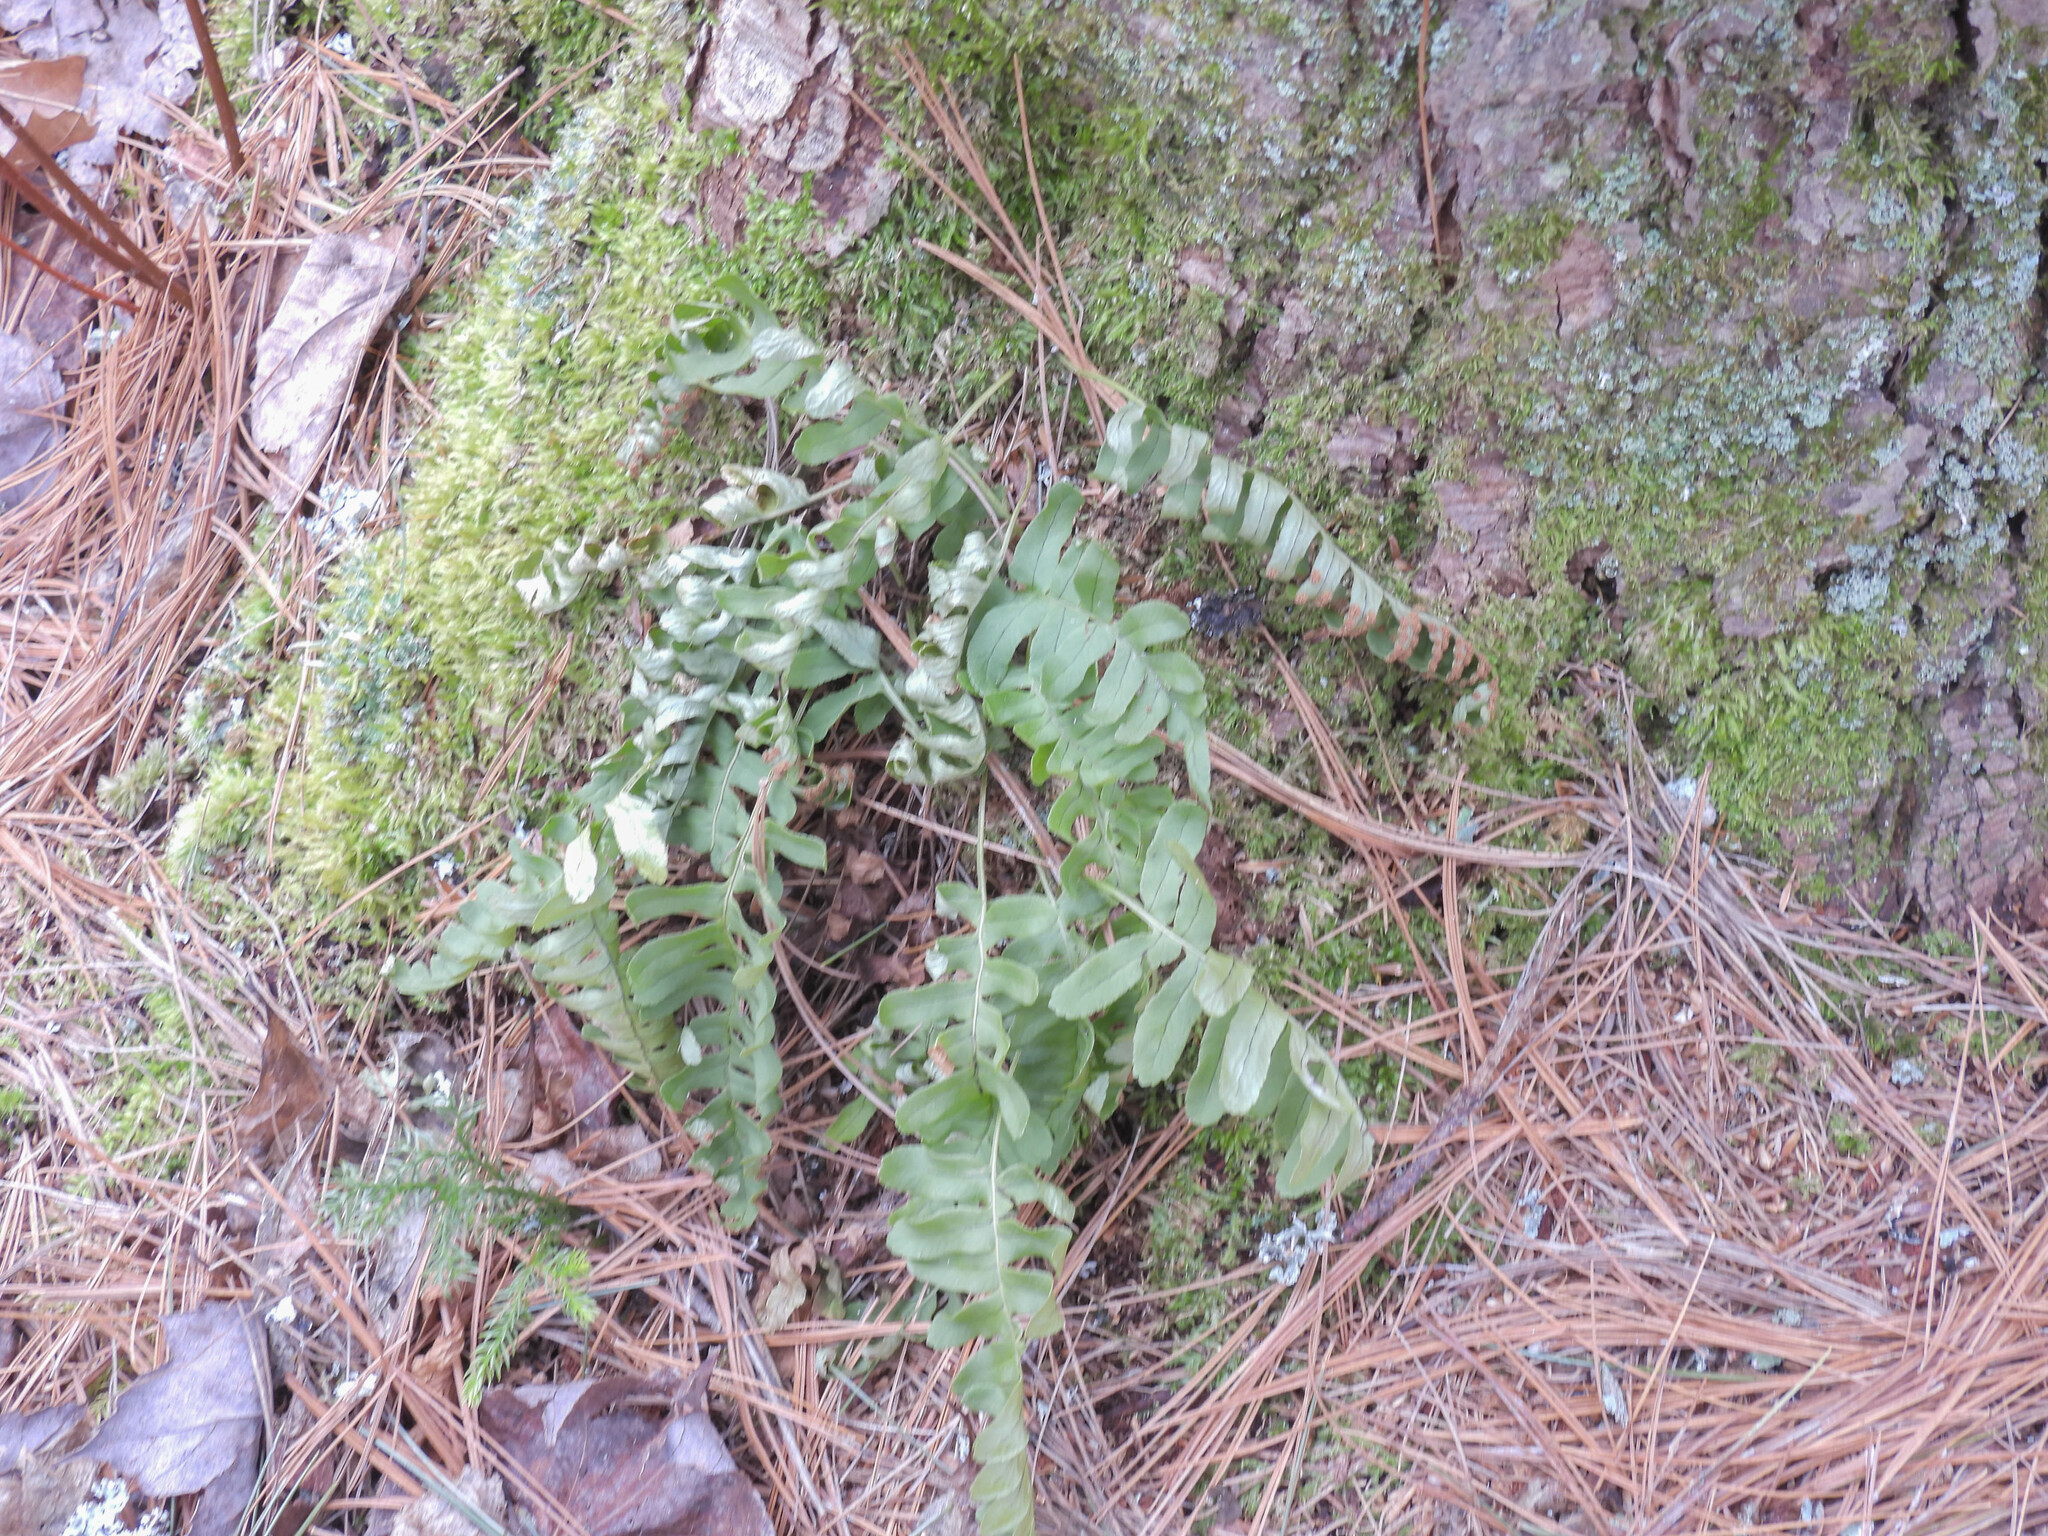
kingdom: Plantae
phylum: Tracheophyta
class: Polypodiopsida
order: Polypodiales
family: Polypodiaceae
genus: Polypodium
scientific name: Polypodium virginianum
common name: American wall fern
